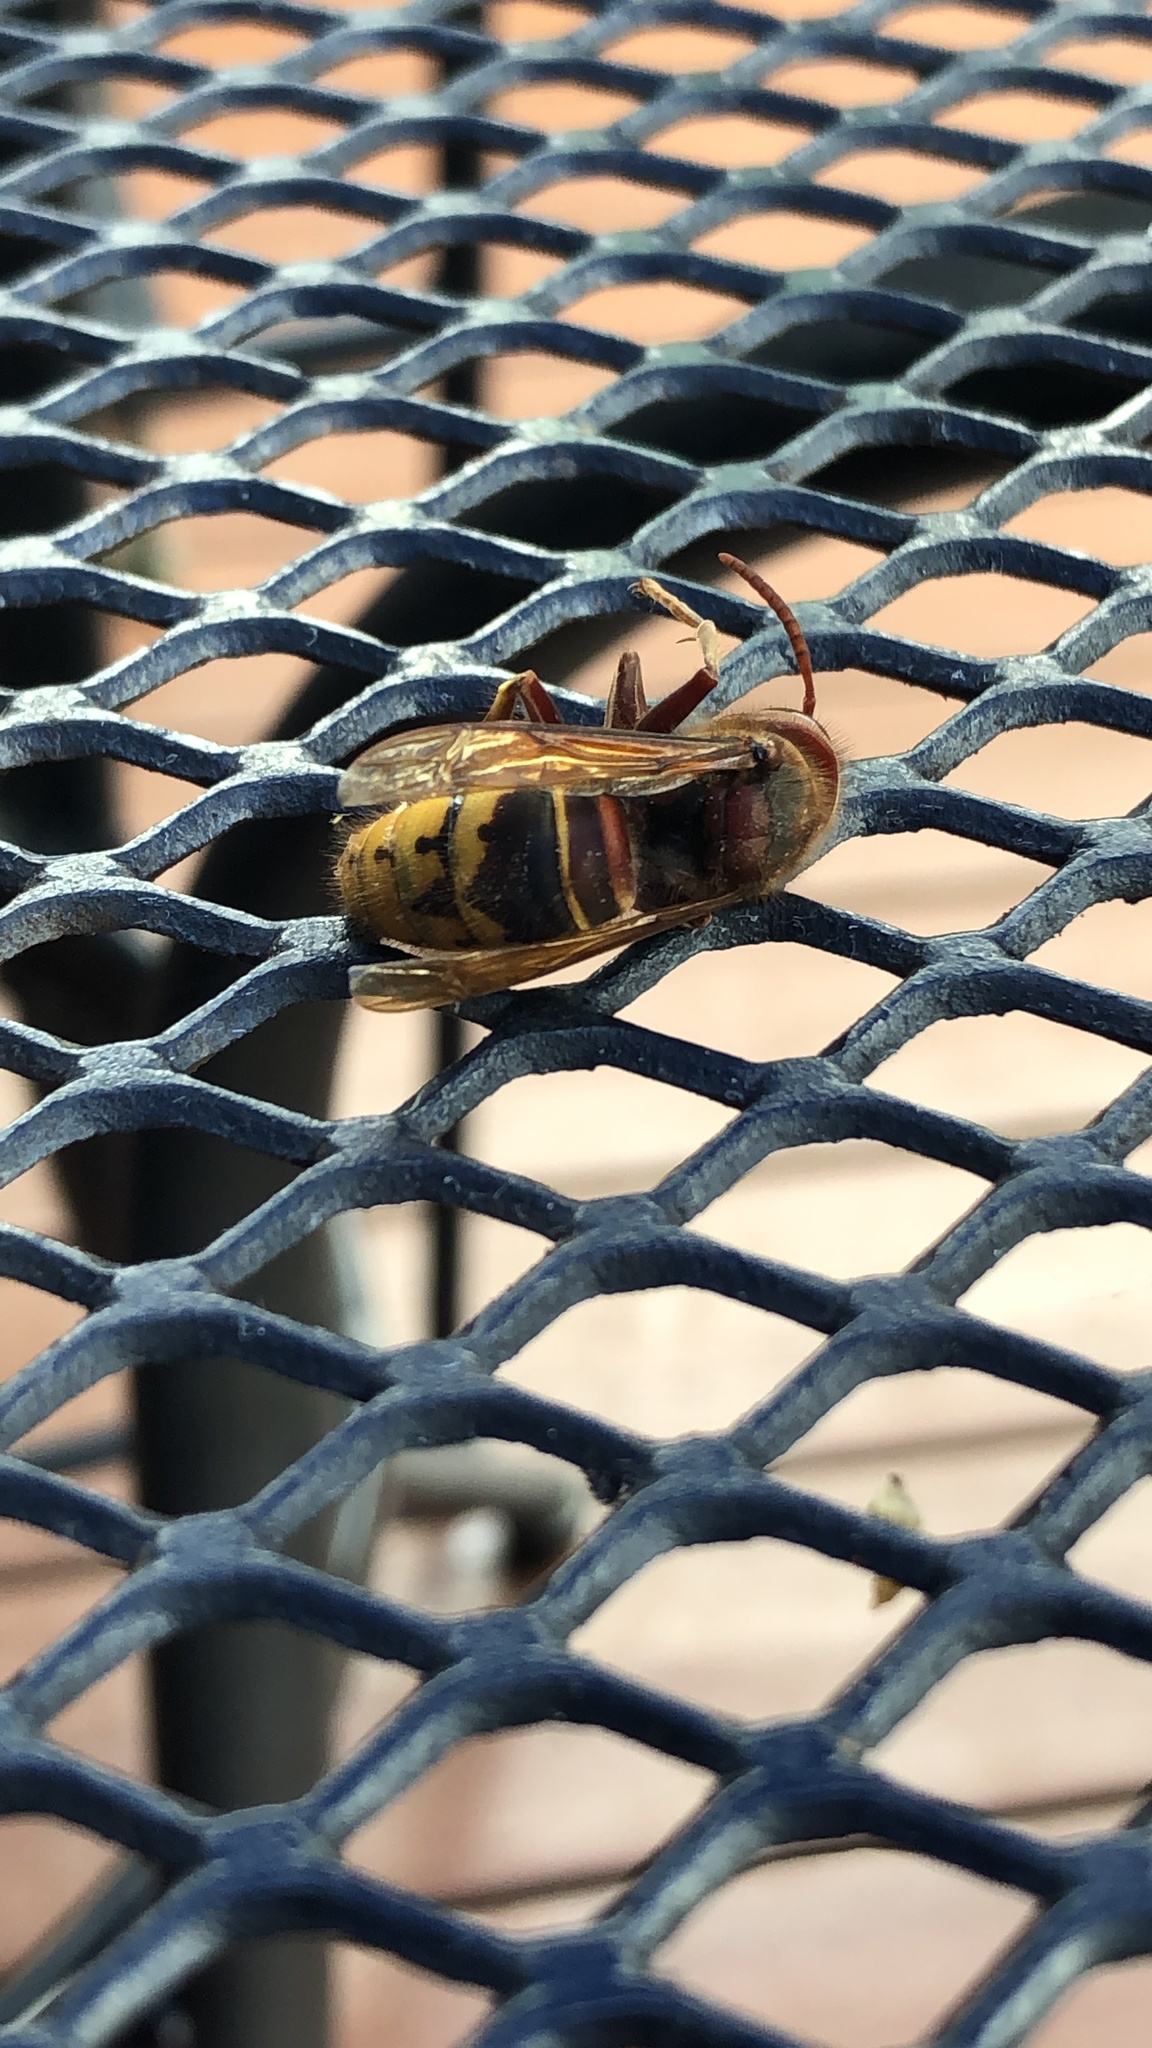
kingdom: Animalia
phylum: Arthropoda
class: Insecta
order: Hymenoptera
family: Vespidae
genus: Vespa
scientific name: Vespa crabro
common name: Hornet
